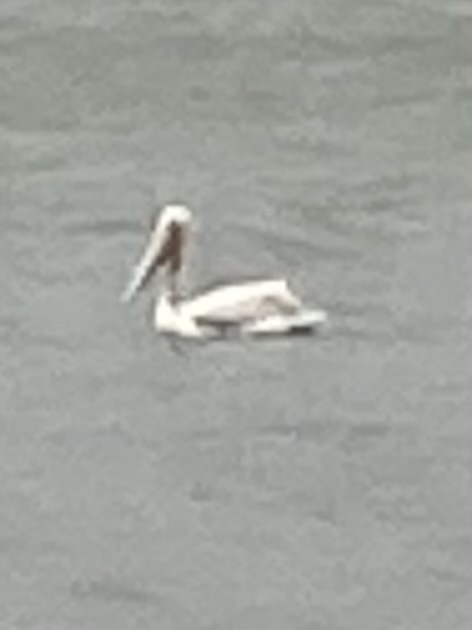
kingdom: Animalia
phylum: Chordata
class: Aves
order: Pelecaniformes
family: Pelecanidae
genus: Pelecanus
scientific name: Pelecanus erythrorhynchos
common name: American white pelican
